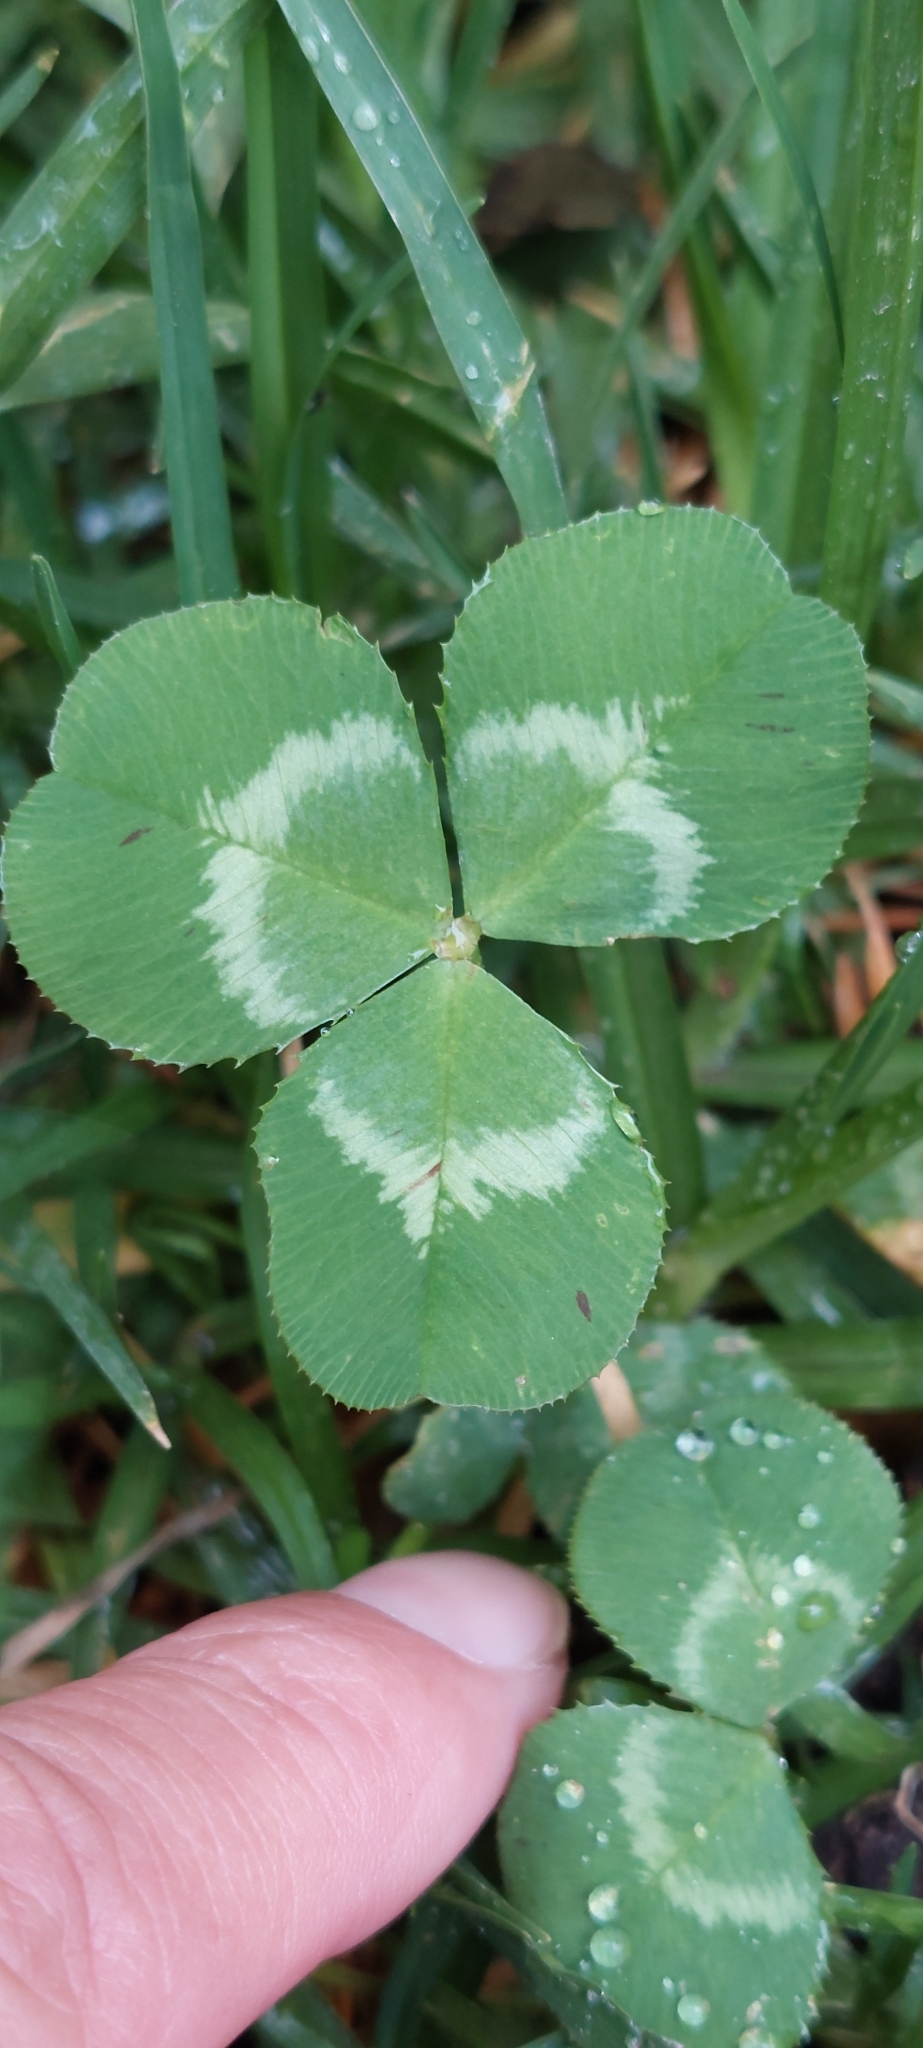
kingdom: Plantae
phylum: Tracheophyta
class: Magnoliopsida
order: Fabales
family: Fabaceae
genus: Trifolium
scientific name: Trifolium repens
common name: White clover
